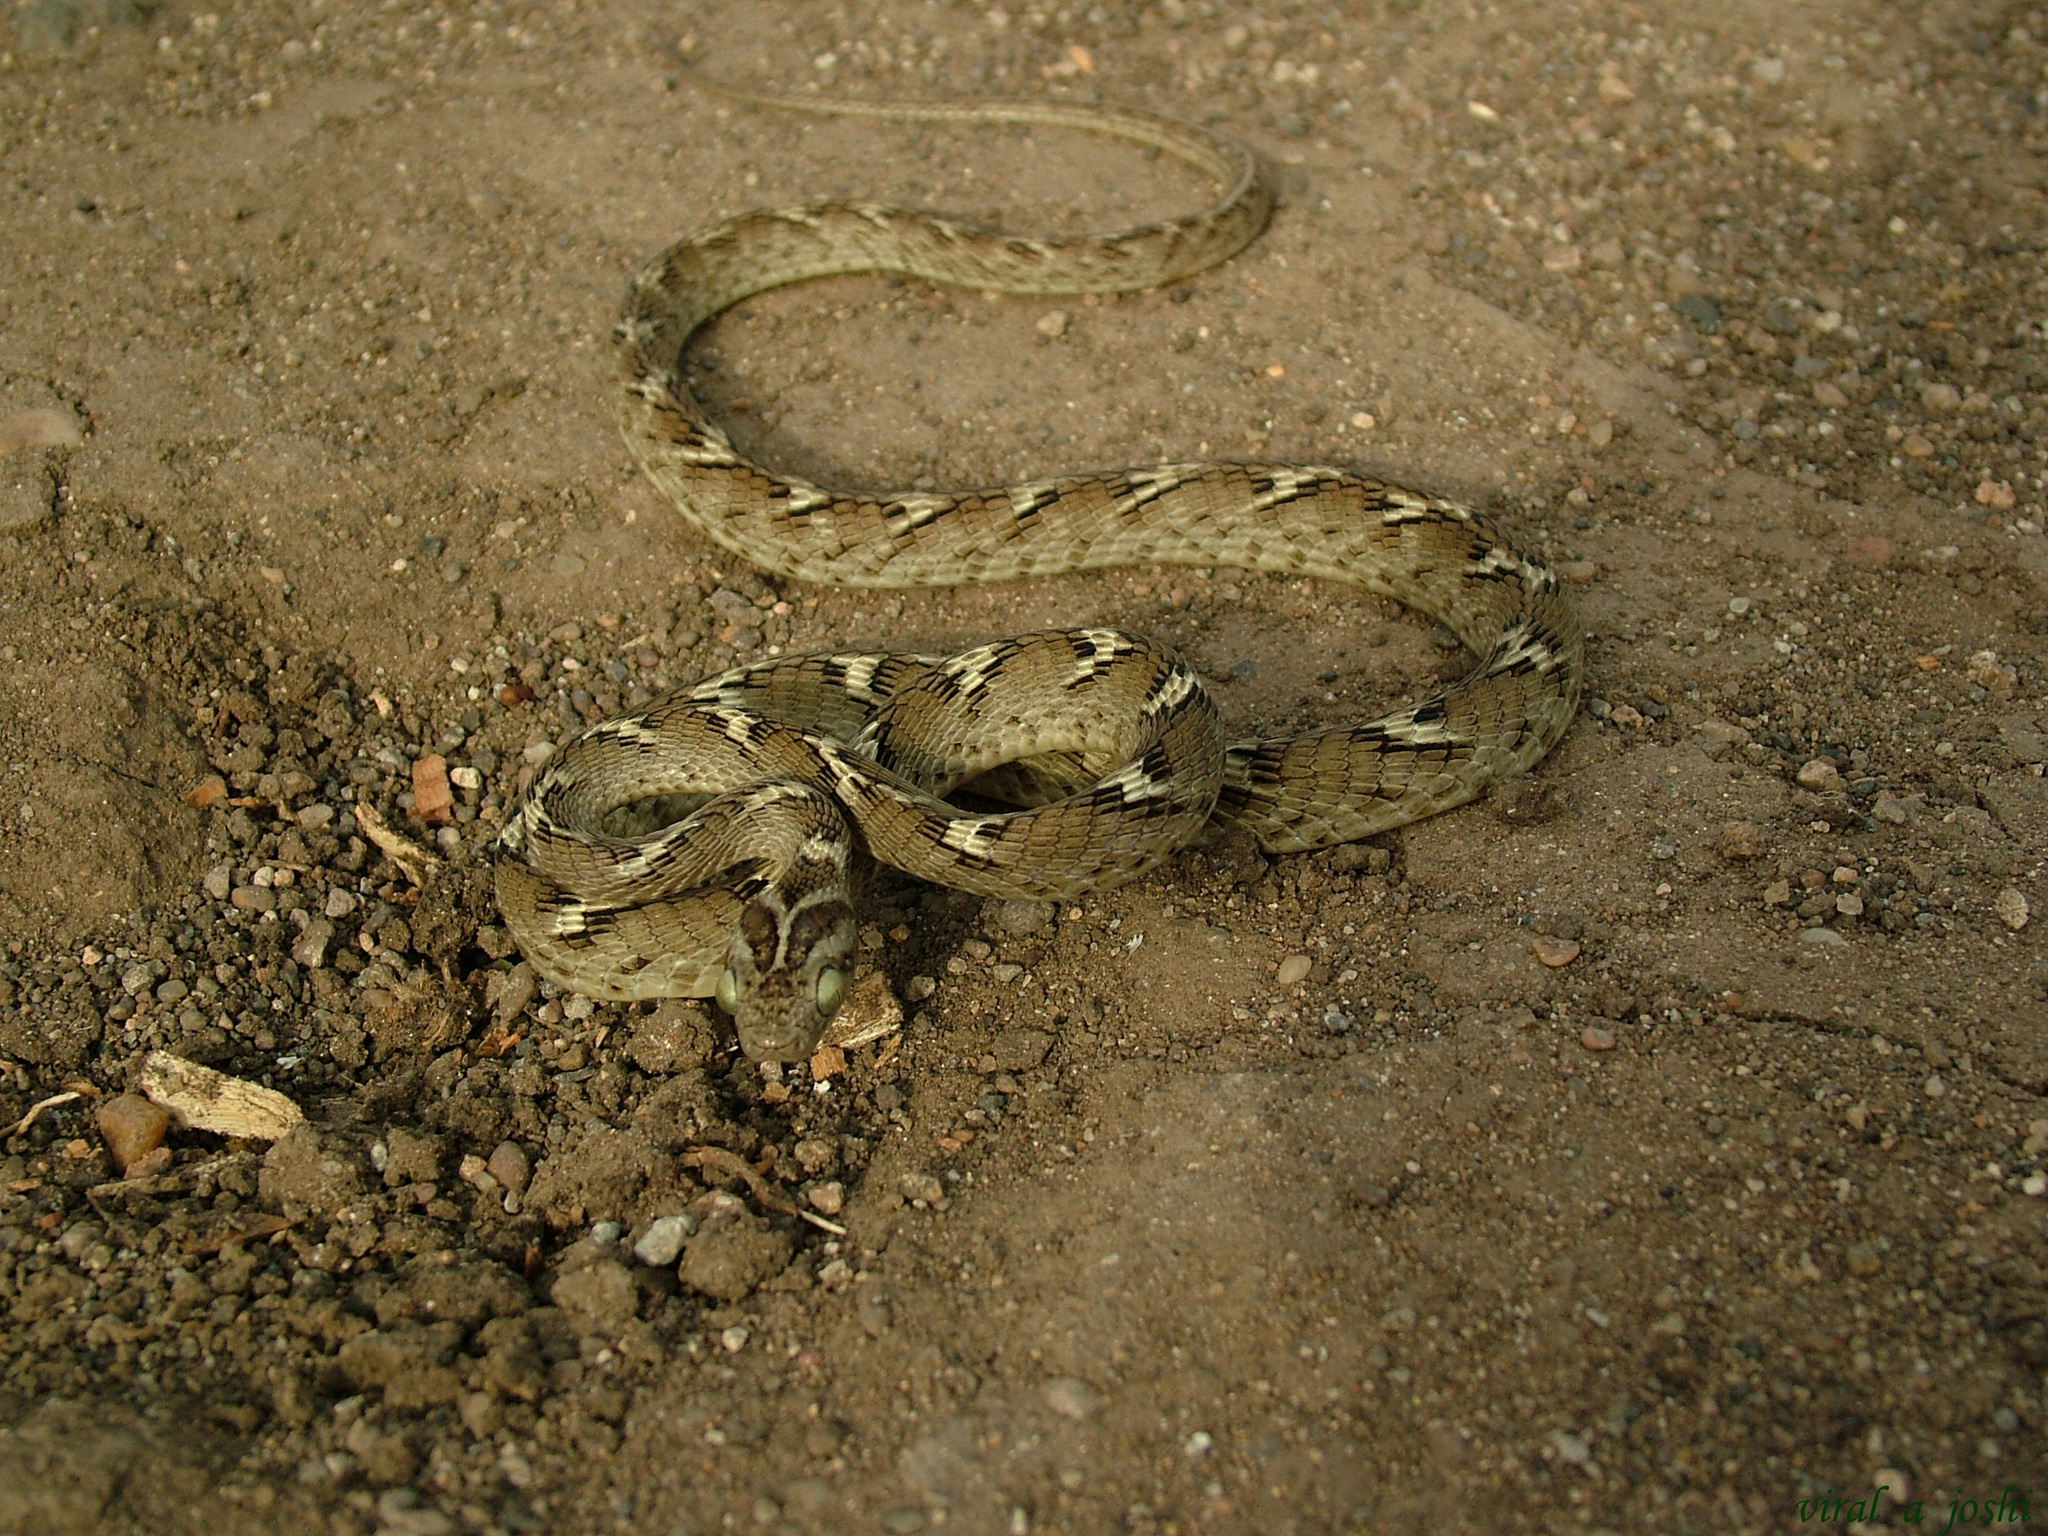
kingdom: Animalia
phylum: Chordata
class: Squamata
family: Colubridae
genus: Boiga
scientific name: Boiga trigonata
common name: Common cat snake
